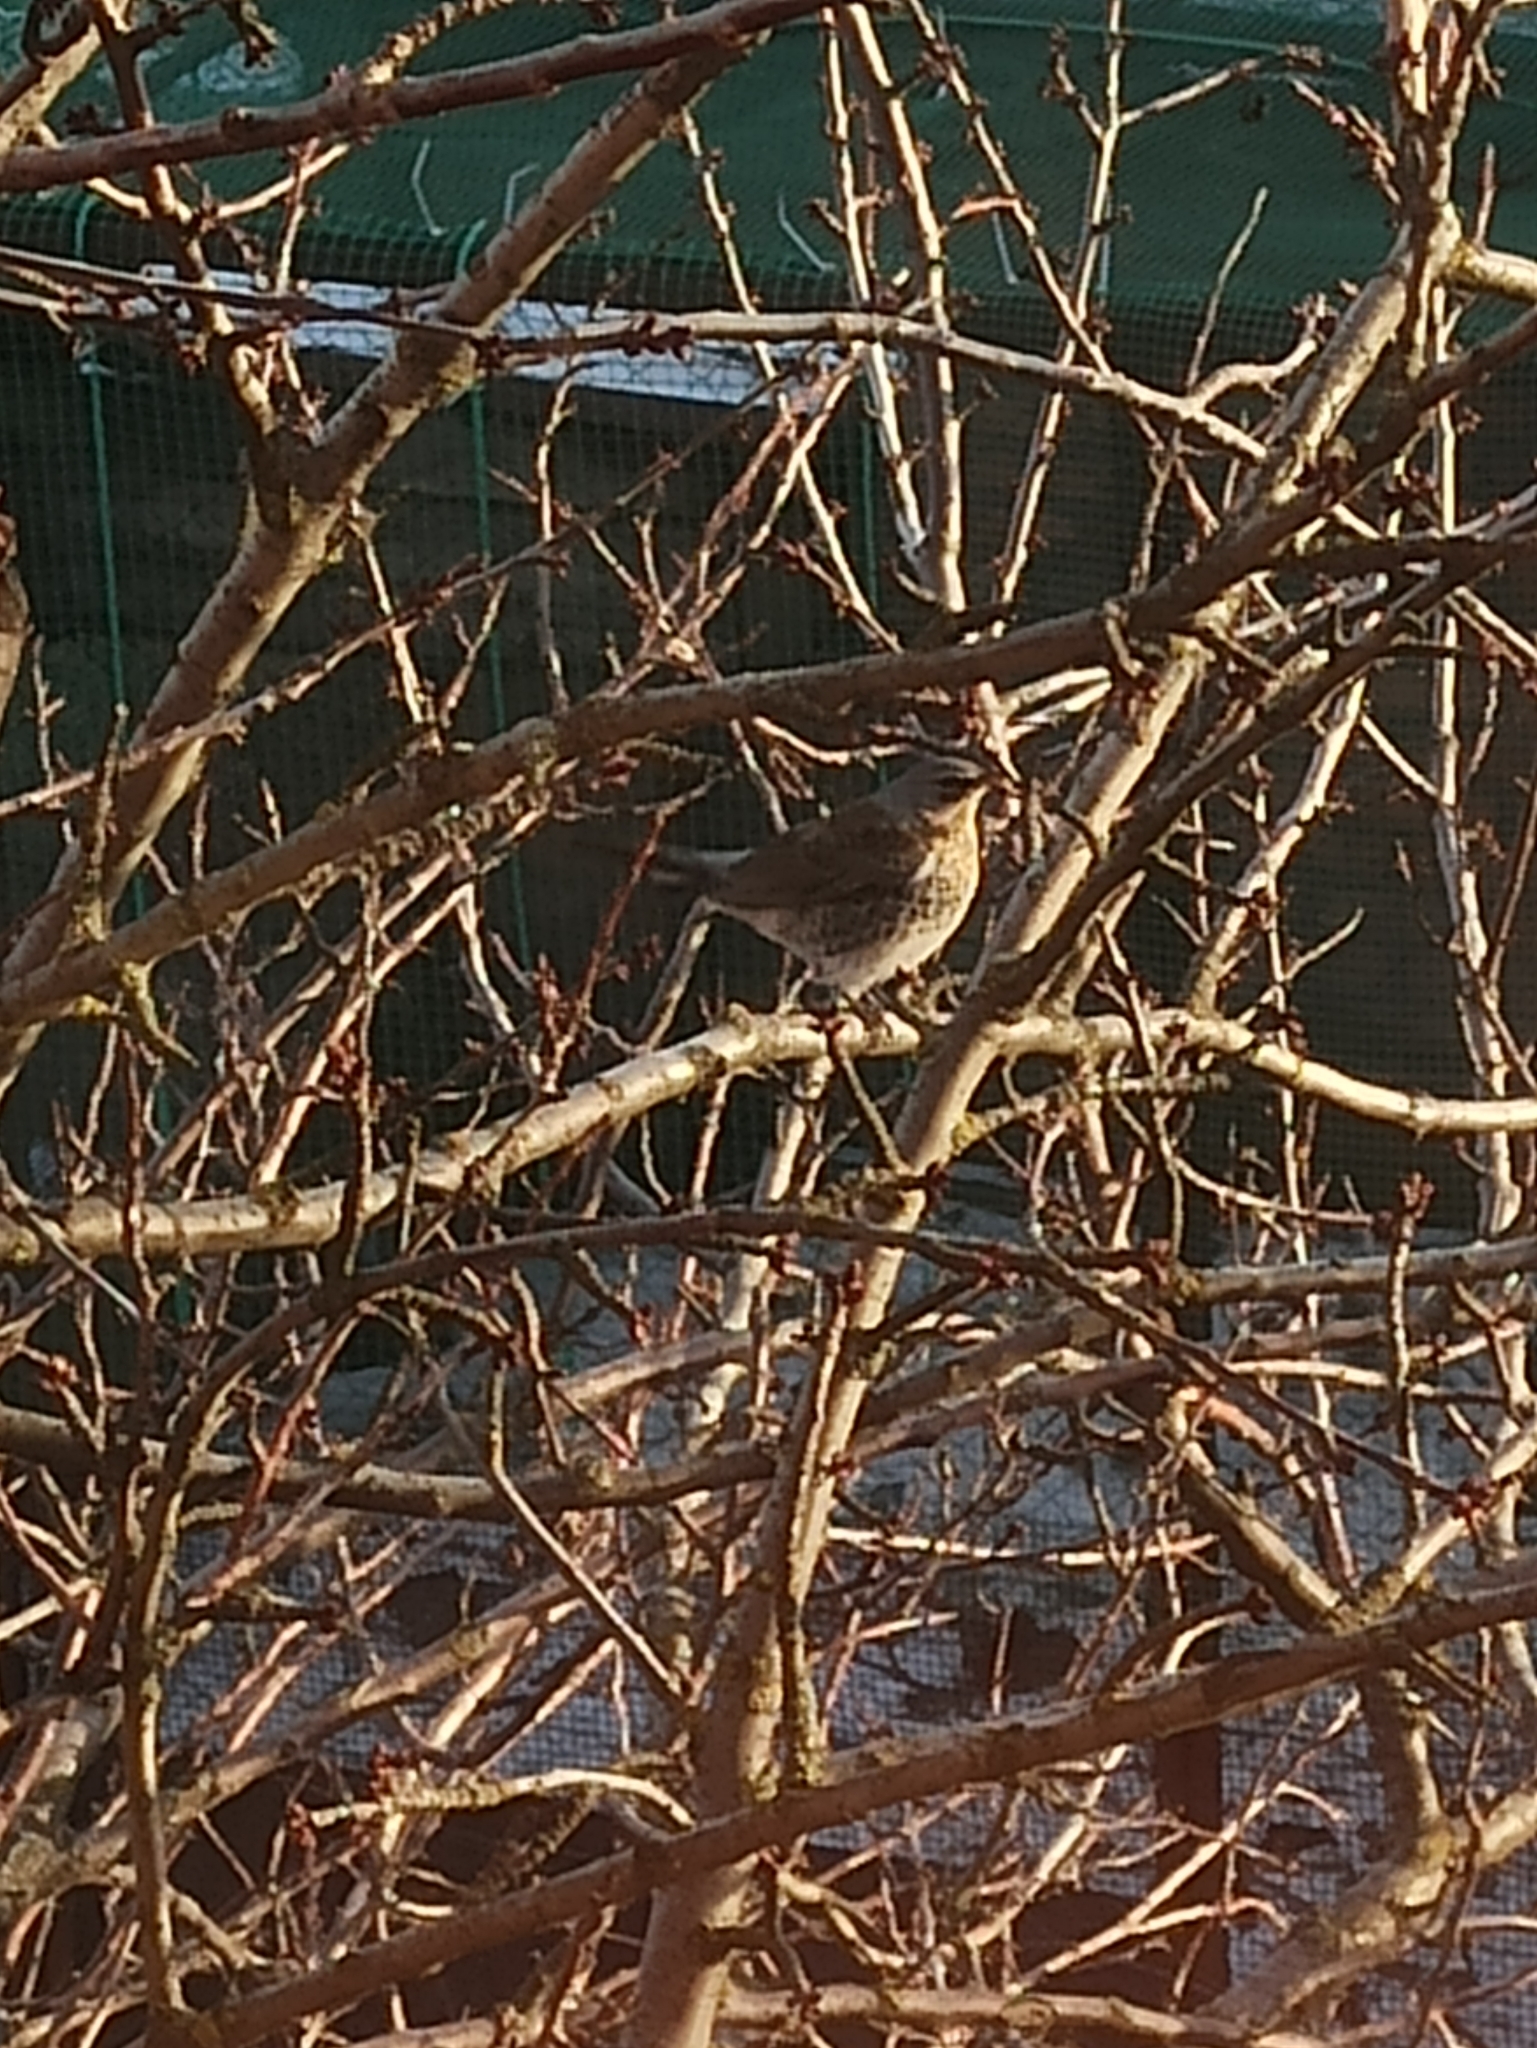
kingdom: Animalia
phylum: Chordata
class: Aves
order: Passeriformes
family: Turdidae
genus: Turdus
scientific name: Turdus pilaris
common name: Fieldfare
